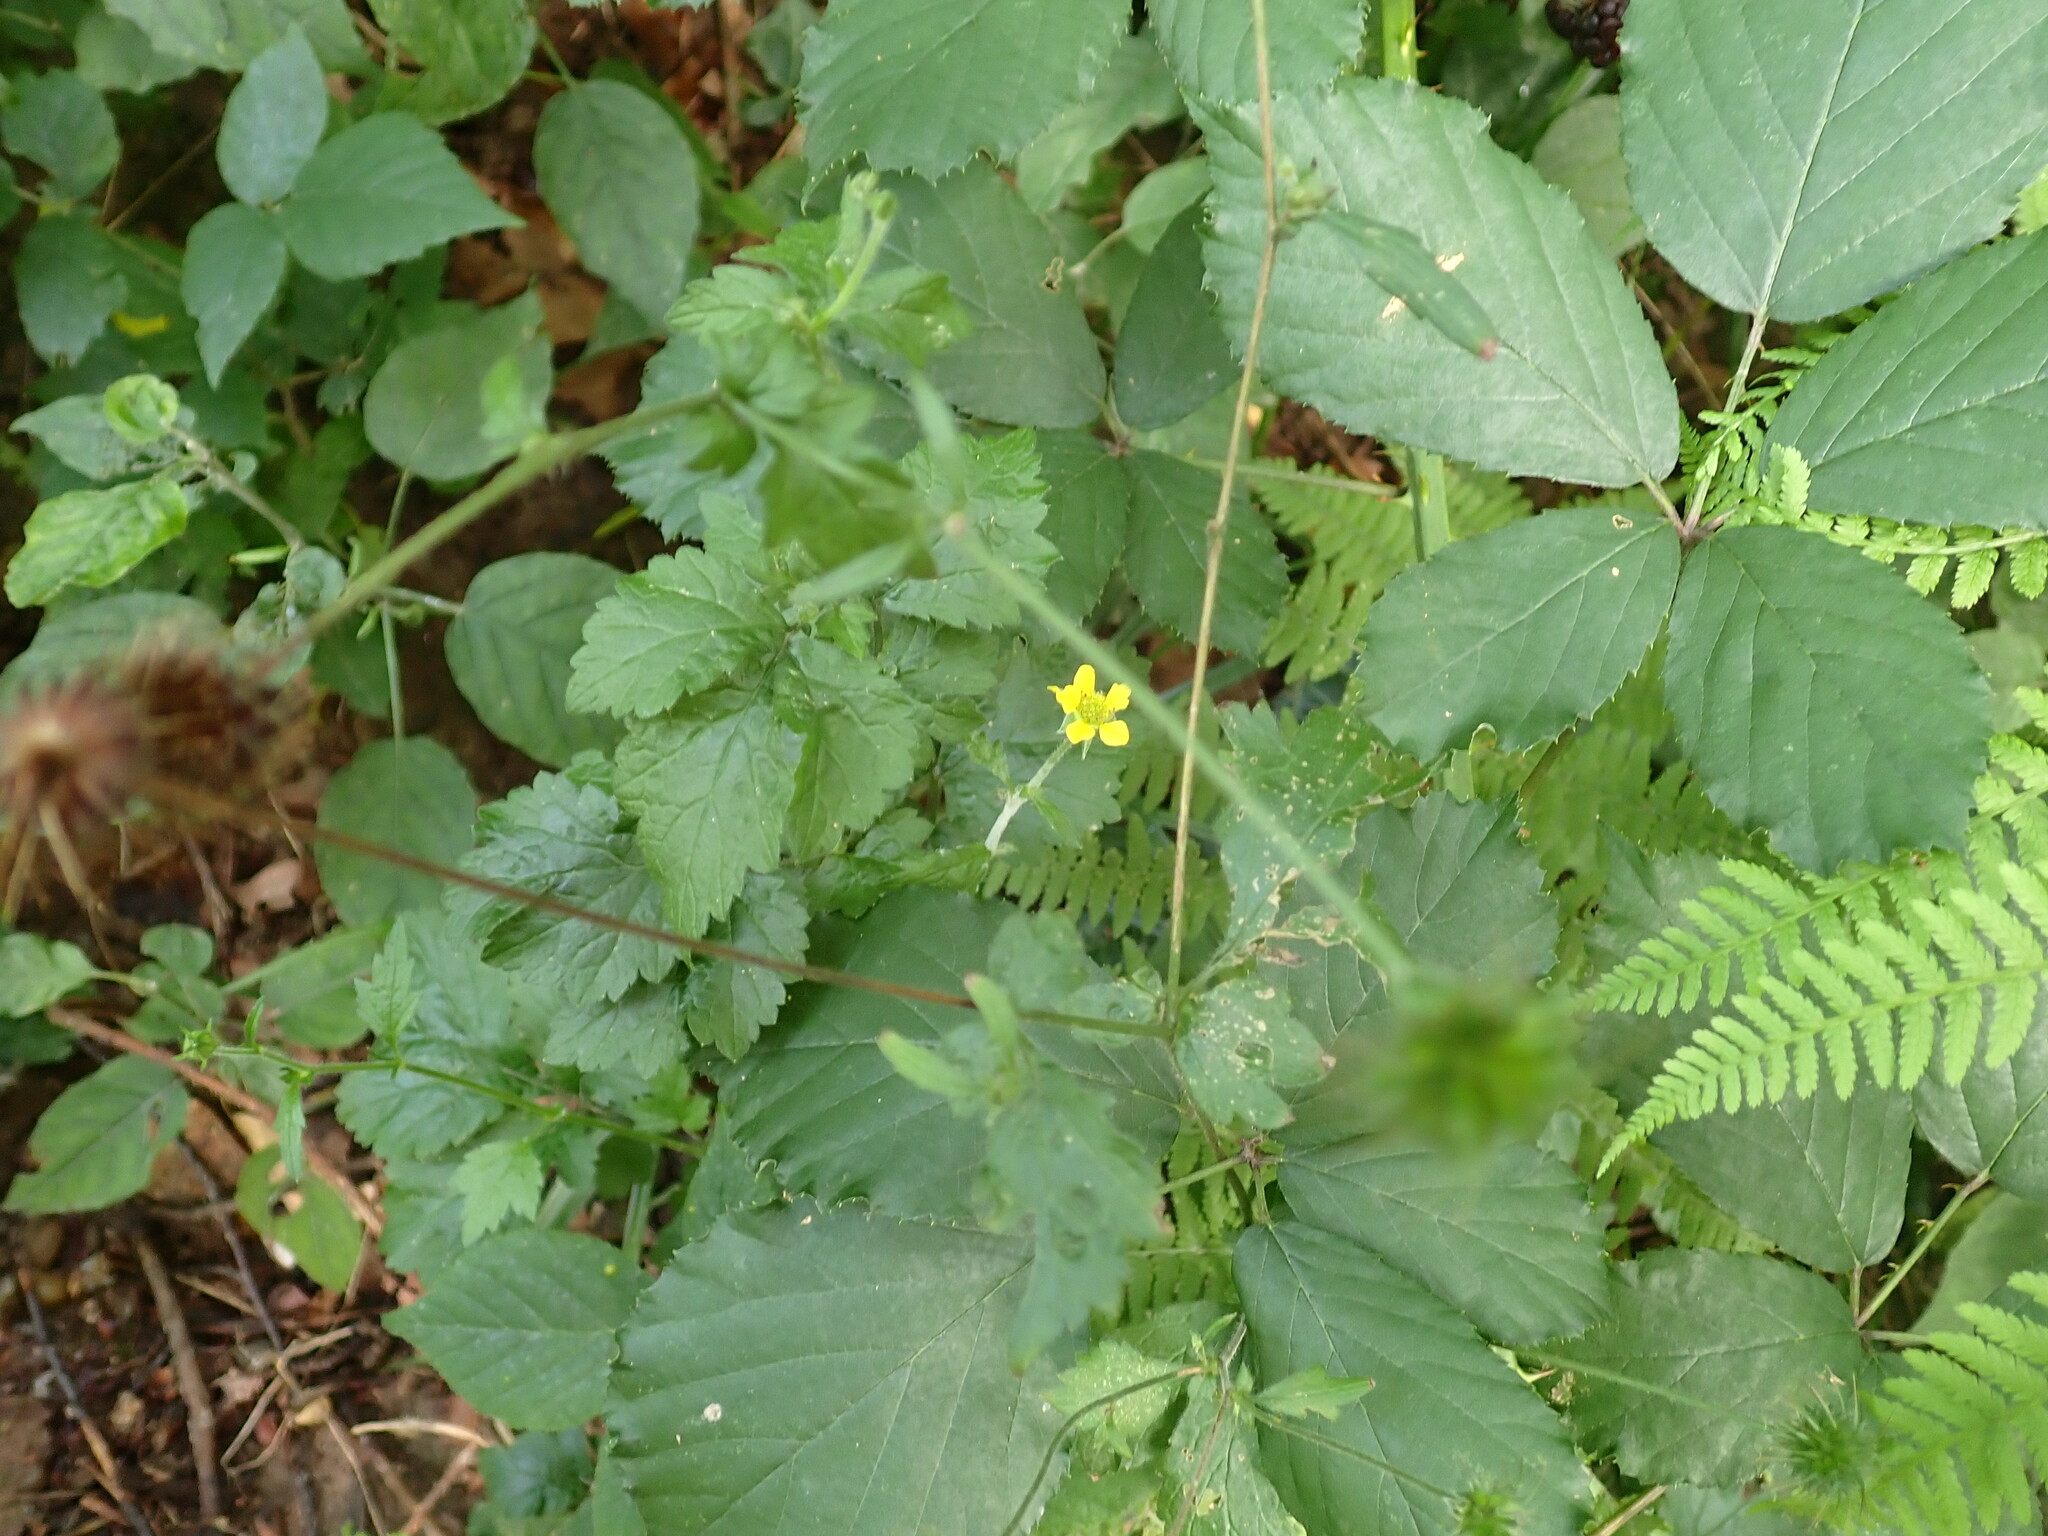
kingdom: Plantae
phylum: Tracheophyta
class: Magnoliopsida
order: Rosales
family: Rosaceae
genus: Geum
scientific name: Geum urbanum
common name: Wood avens
